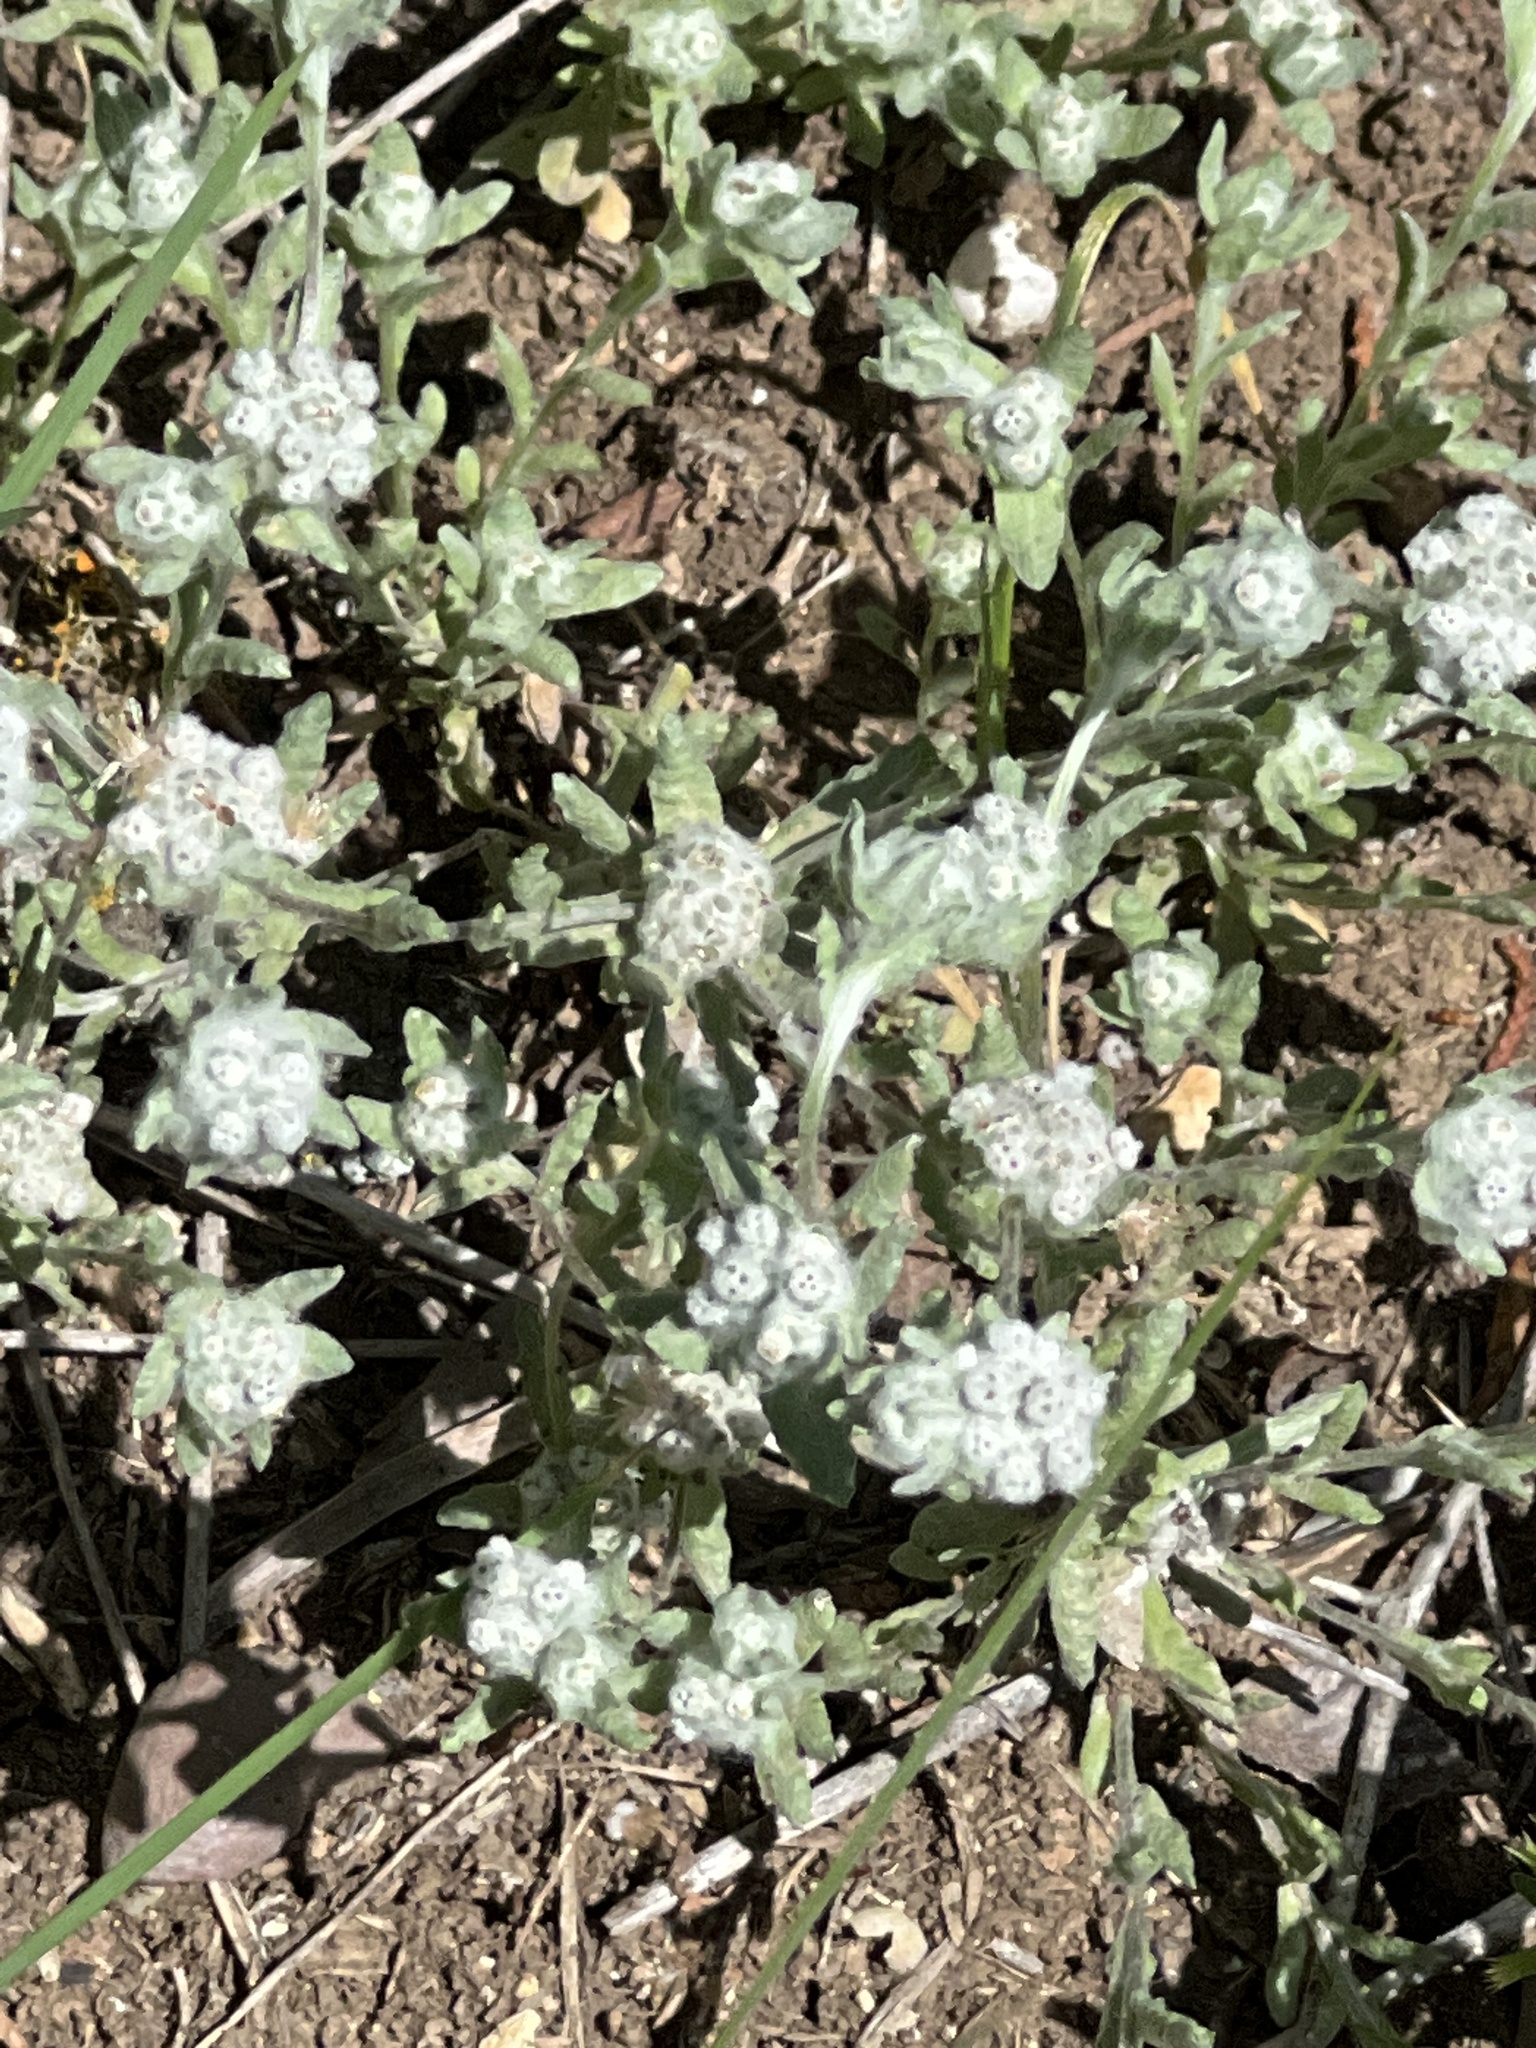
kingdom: Plantae
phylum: Tracheophyta
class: Magnoliopsida
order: Asterales
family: Asteraceae
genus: Diaperia
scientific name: Diaperia verna
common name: Many-stem rabbit-tobacco
